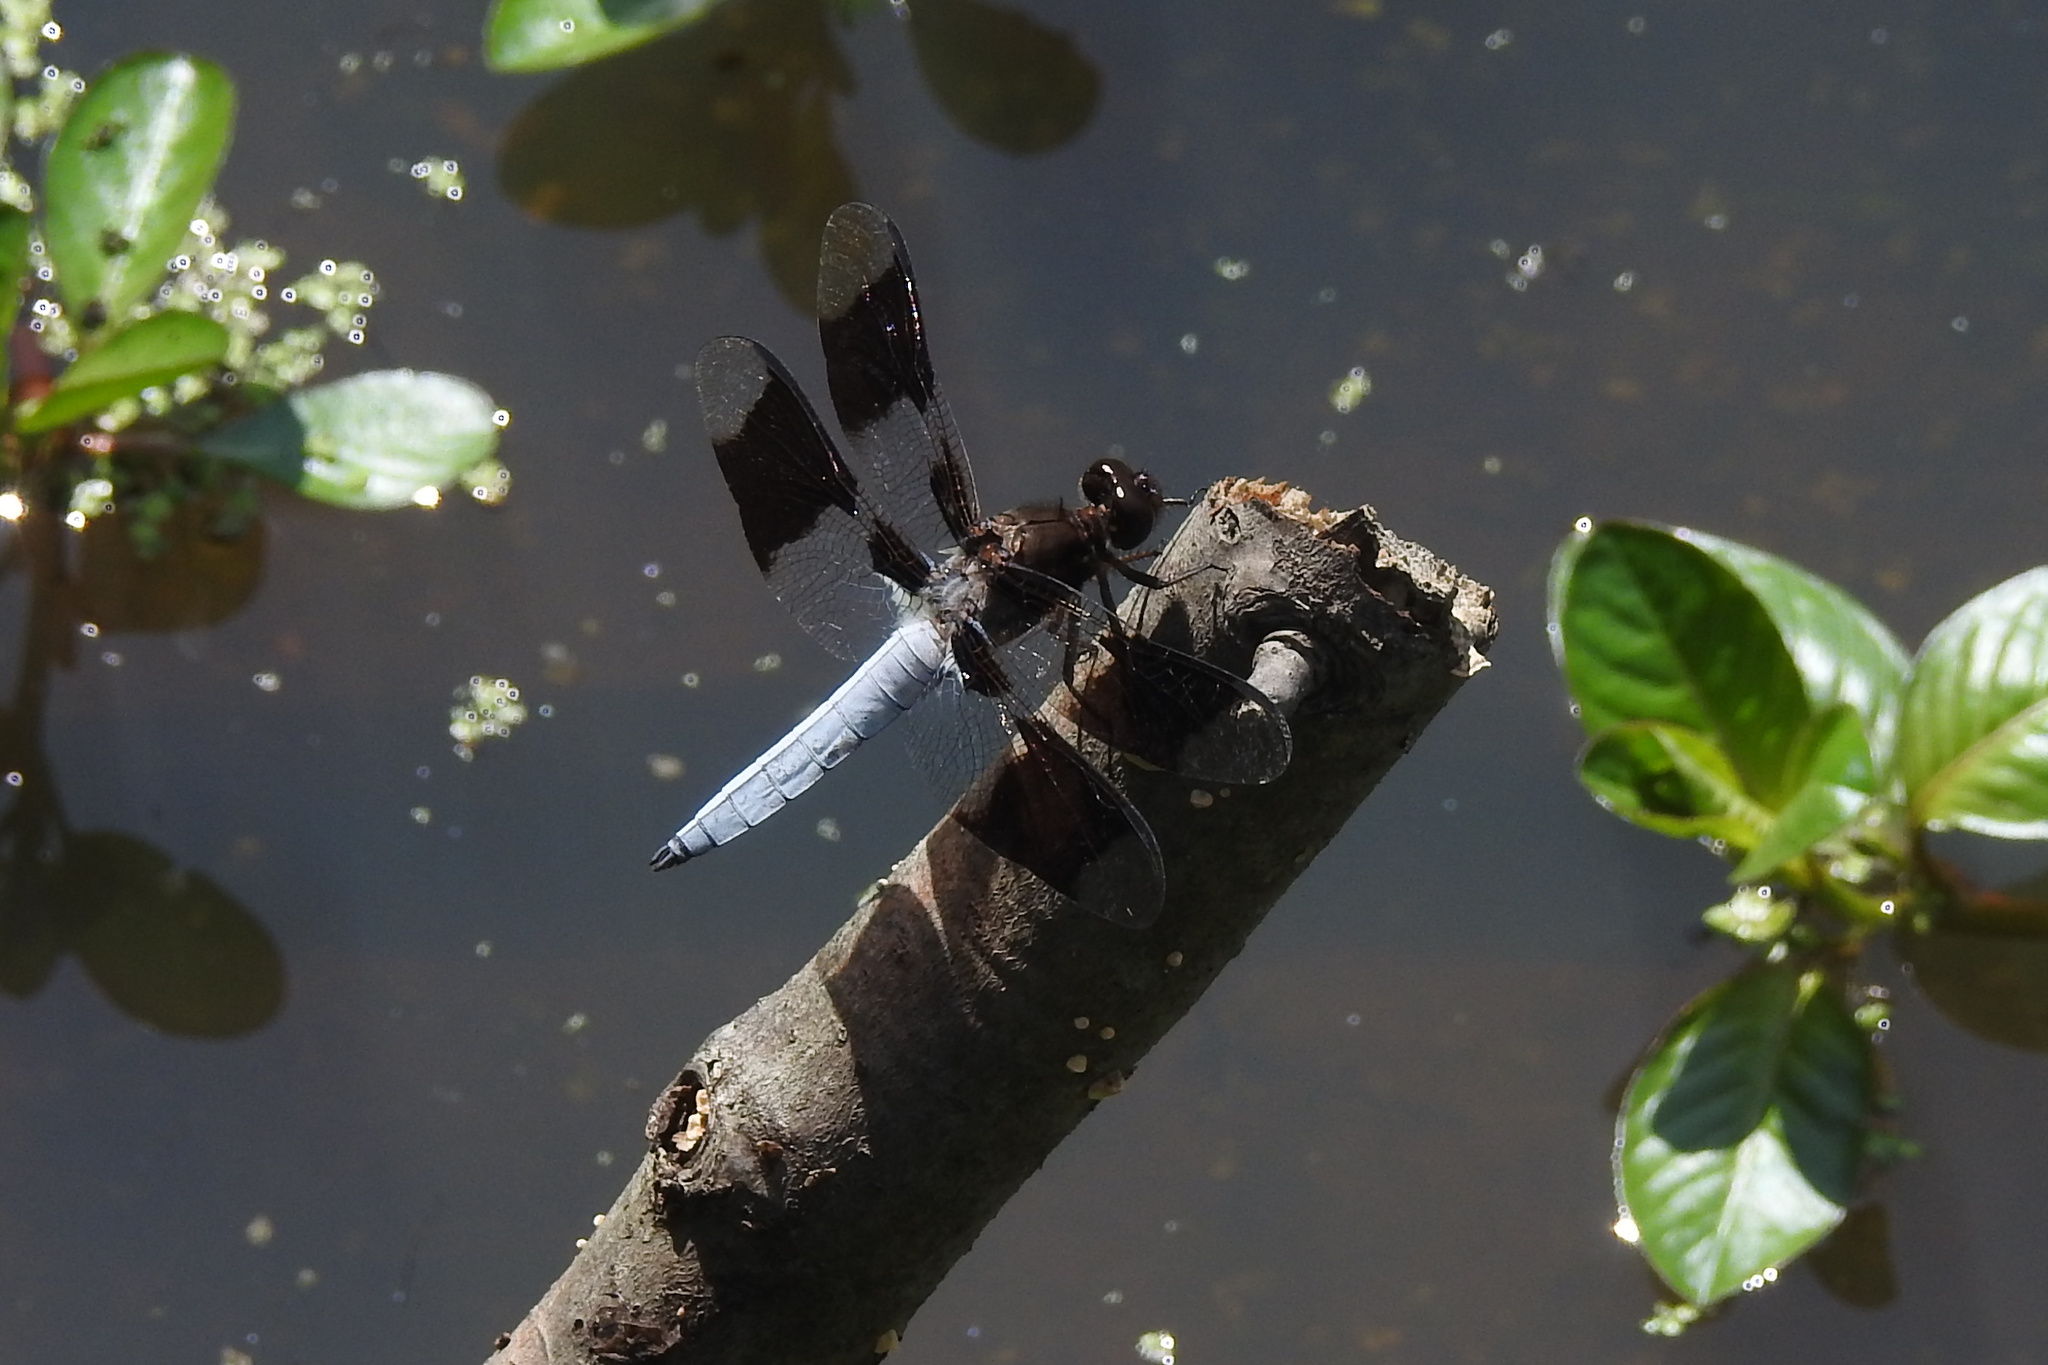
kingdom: Animalia
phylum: Arthropoda
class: Insecta
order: Odonata
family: Libellulidae
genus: Plathemis
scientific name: Plathemis lydia
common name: Common whitetail
